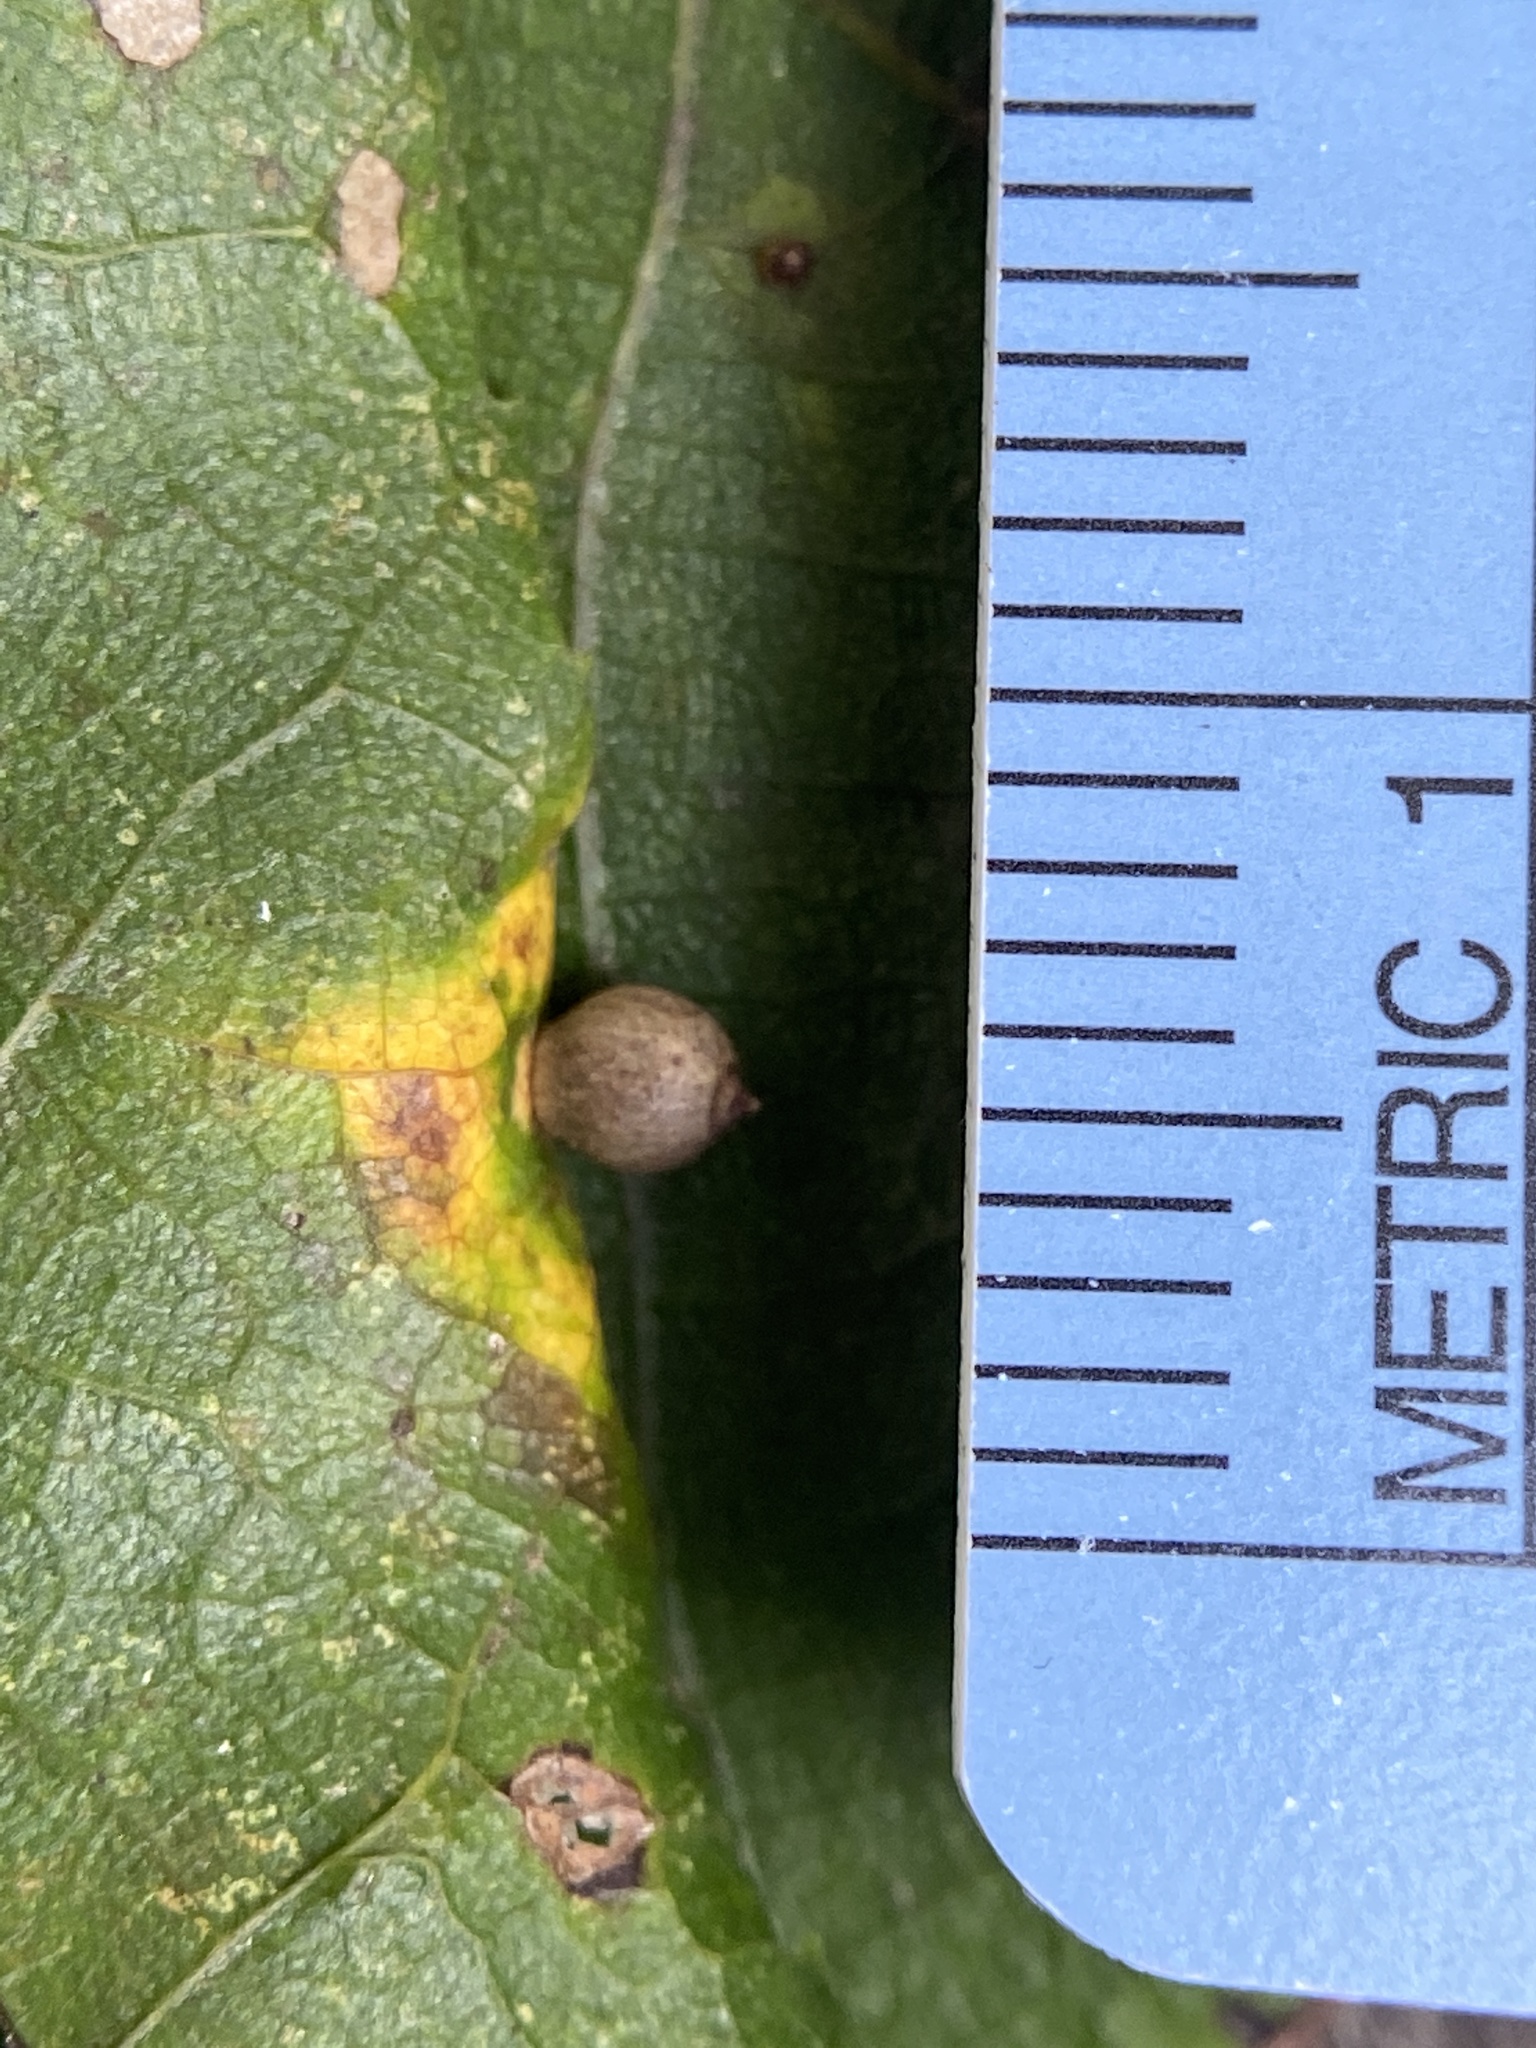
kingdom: Animalia
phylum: Arthropoda
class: Insecta
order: Diptera
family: Cecidomyiidae
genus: Caryomyia
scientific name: Caryomyia viscidolium
